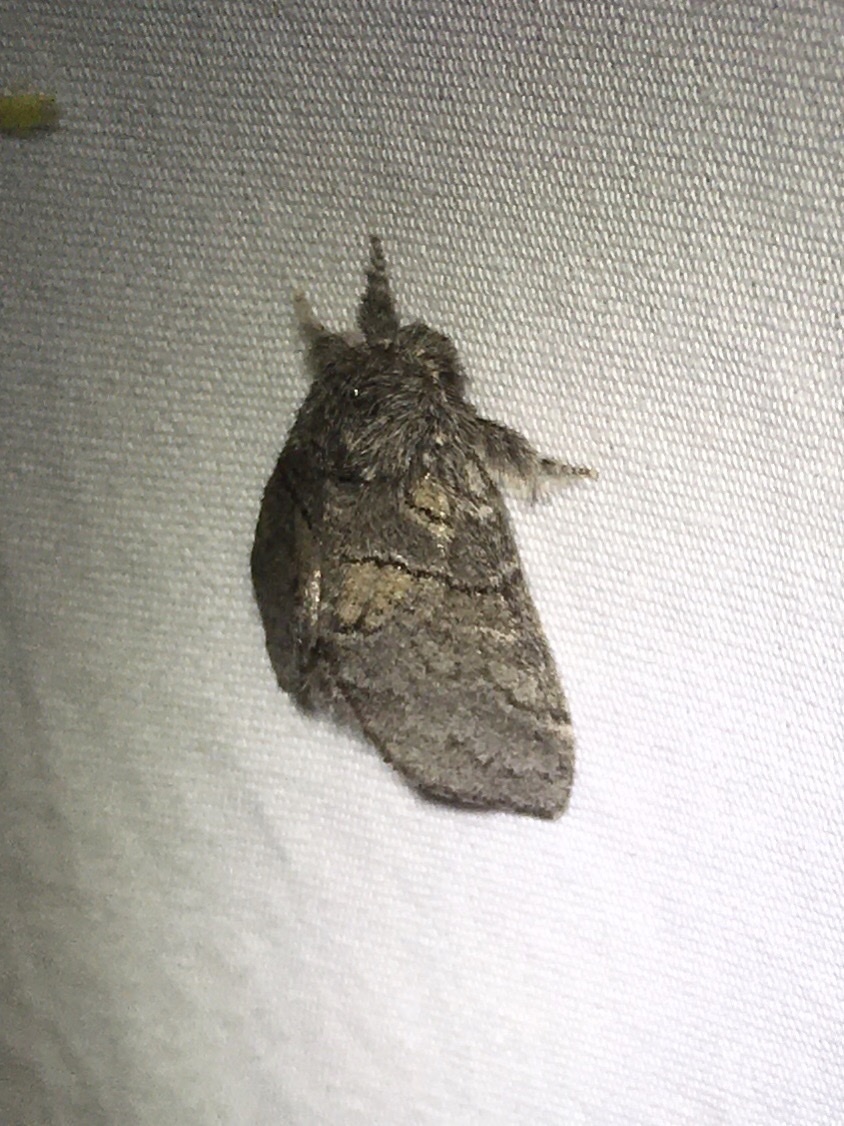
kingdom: Animalia
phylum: Arthropoda
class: Insecta
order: Lepidoptera
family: Notodontidae
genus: Gluphisia
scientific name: Gluphisia septentrionis
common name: Common gluphisia
